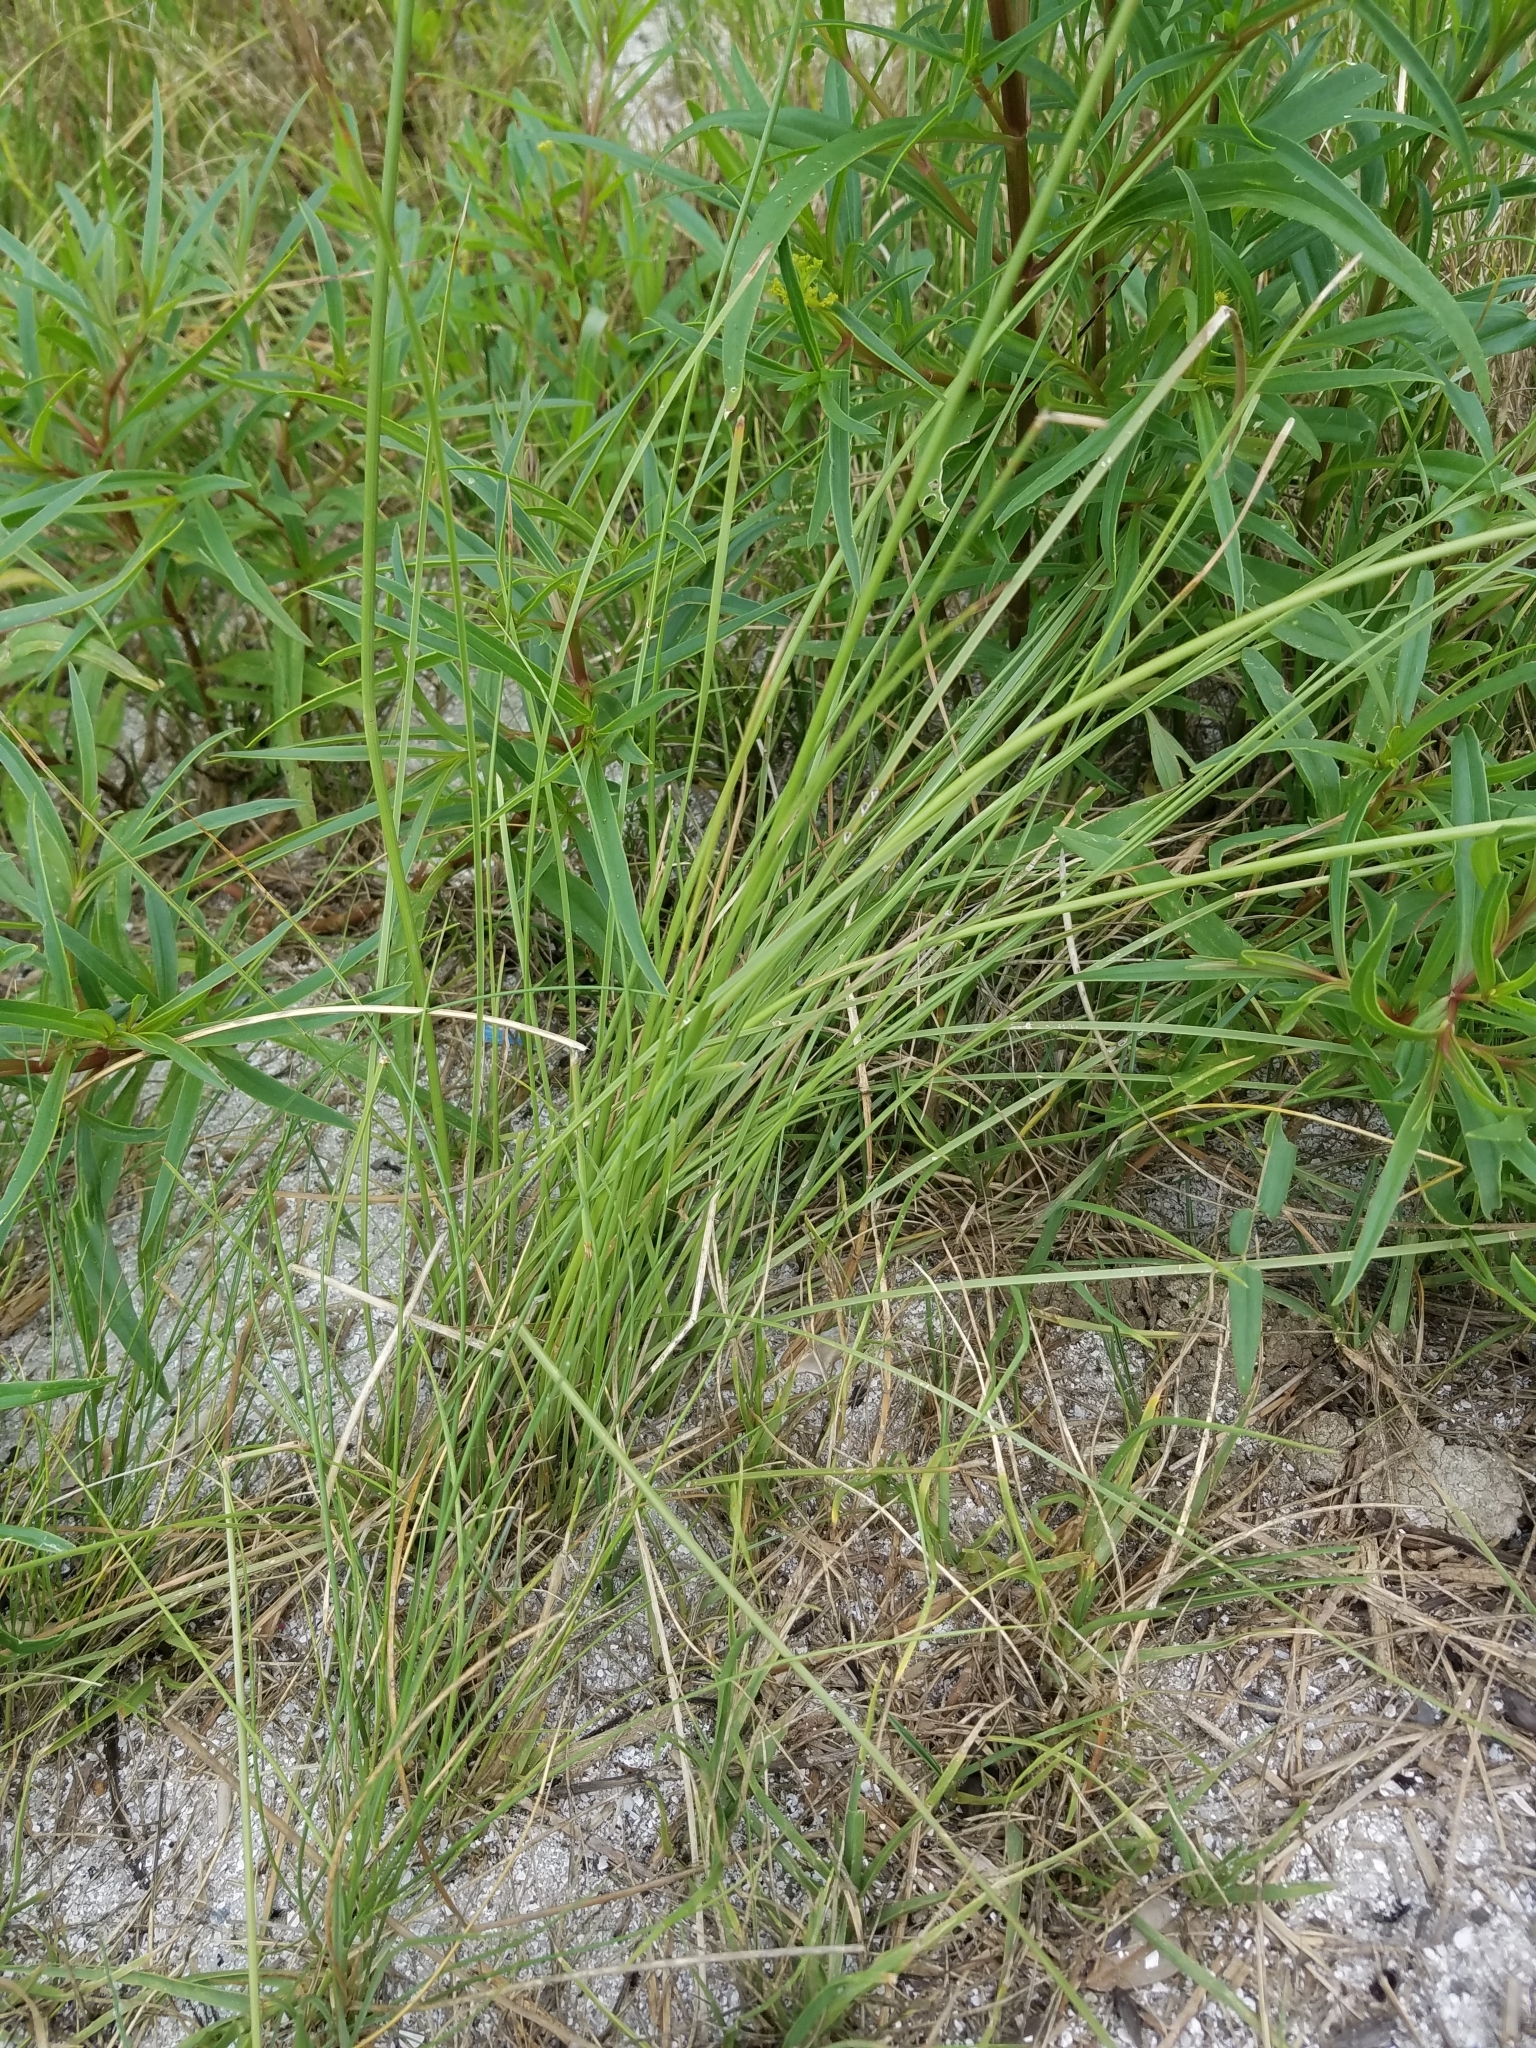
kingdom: Plantae
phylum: Tracheophyta
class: Liliopsida
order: Poales
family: Cyperaceae
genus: Fimbristylis
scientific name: Fimbristylis spadicea
